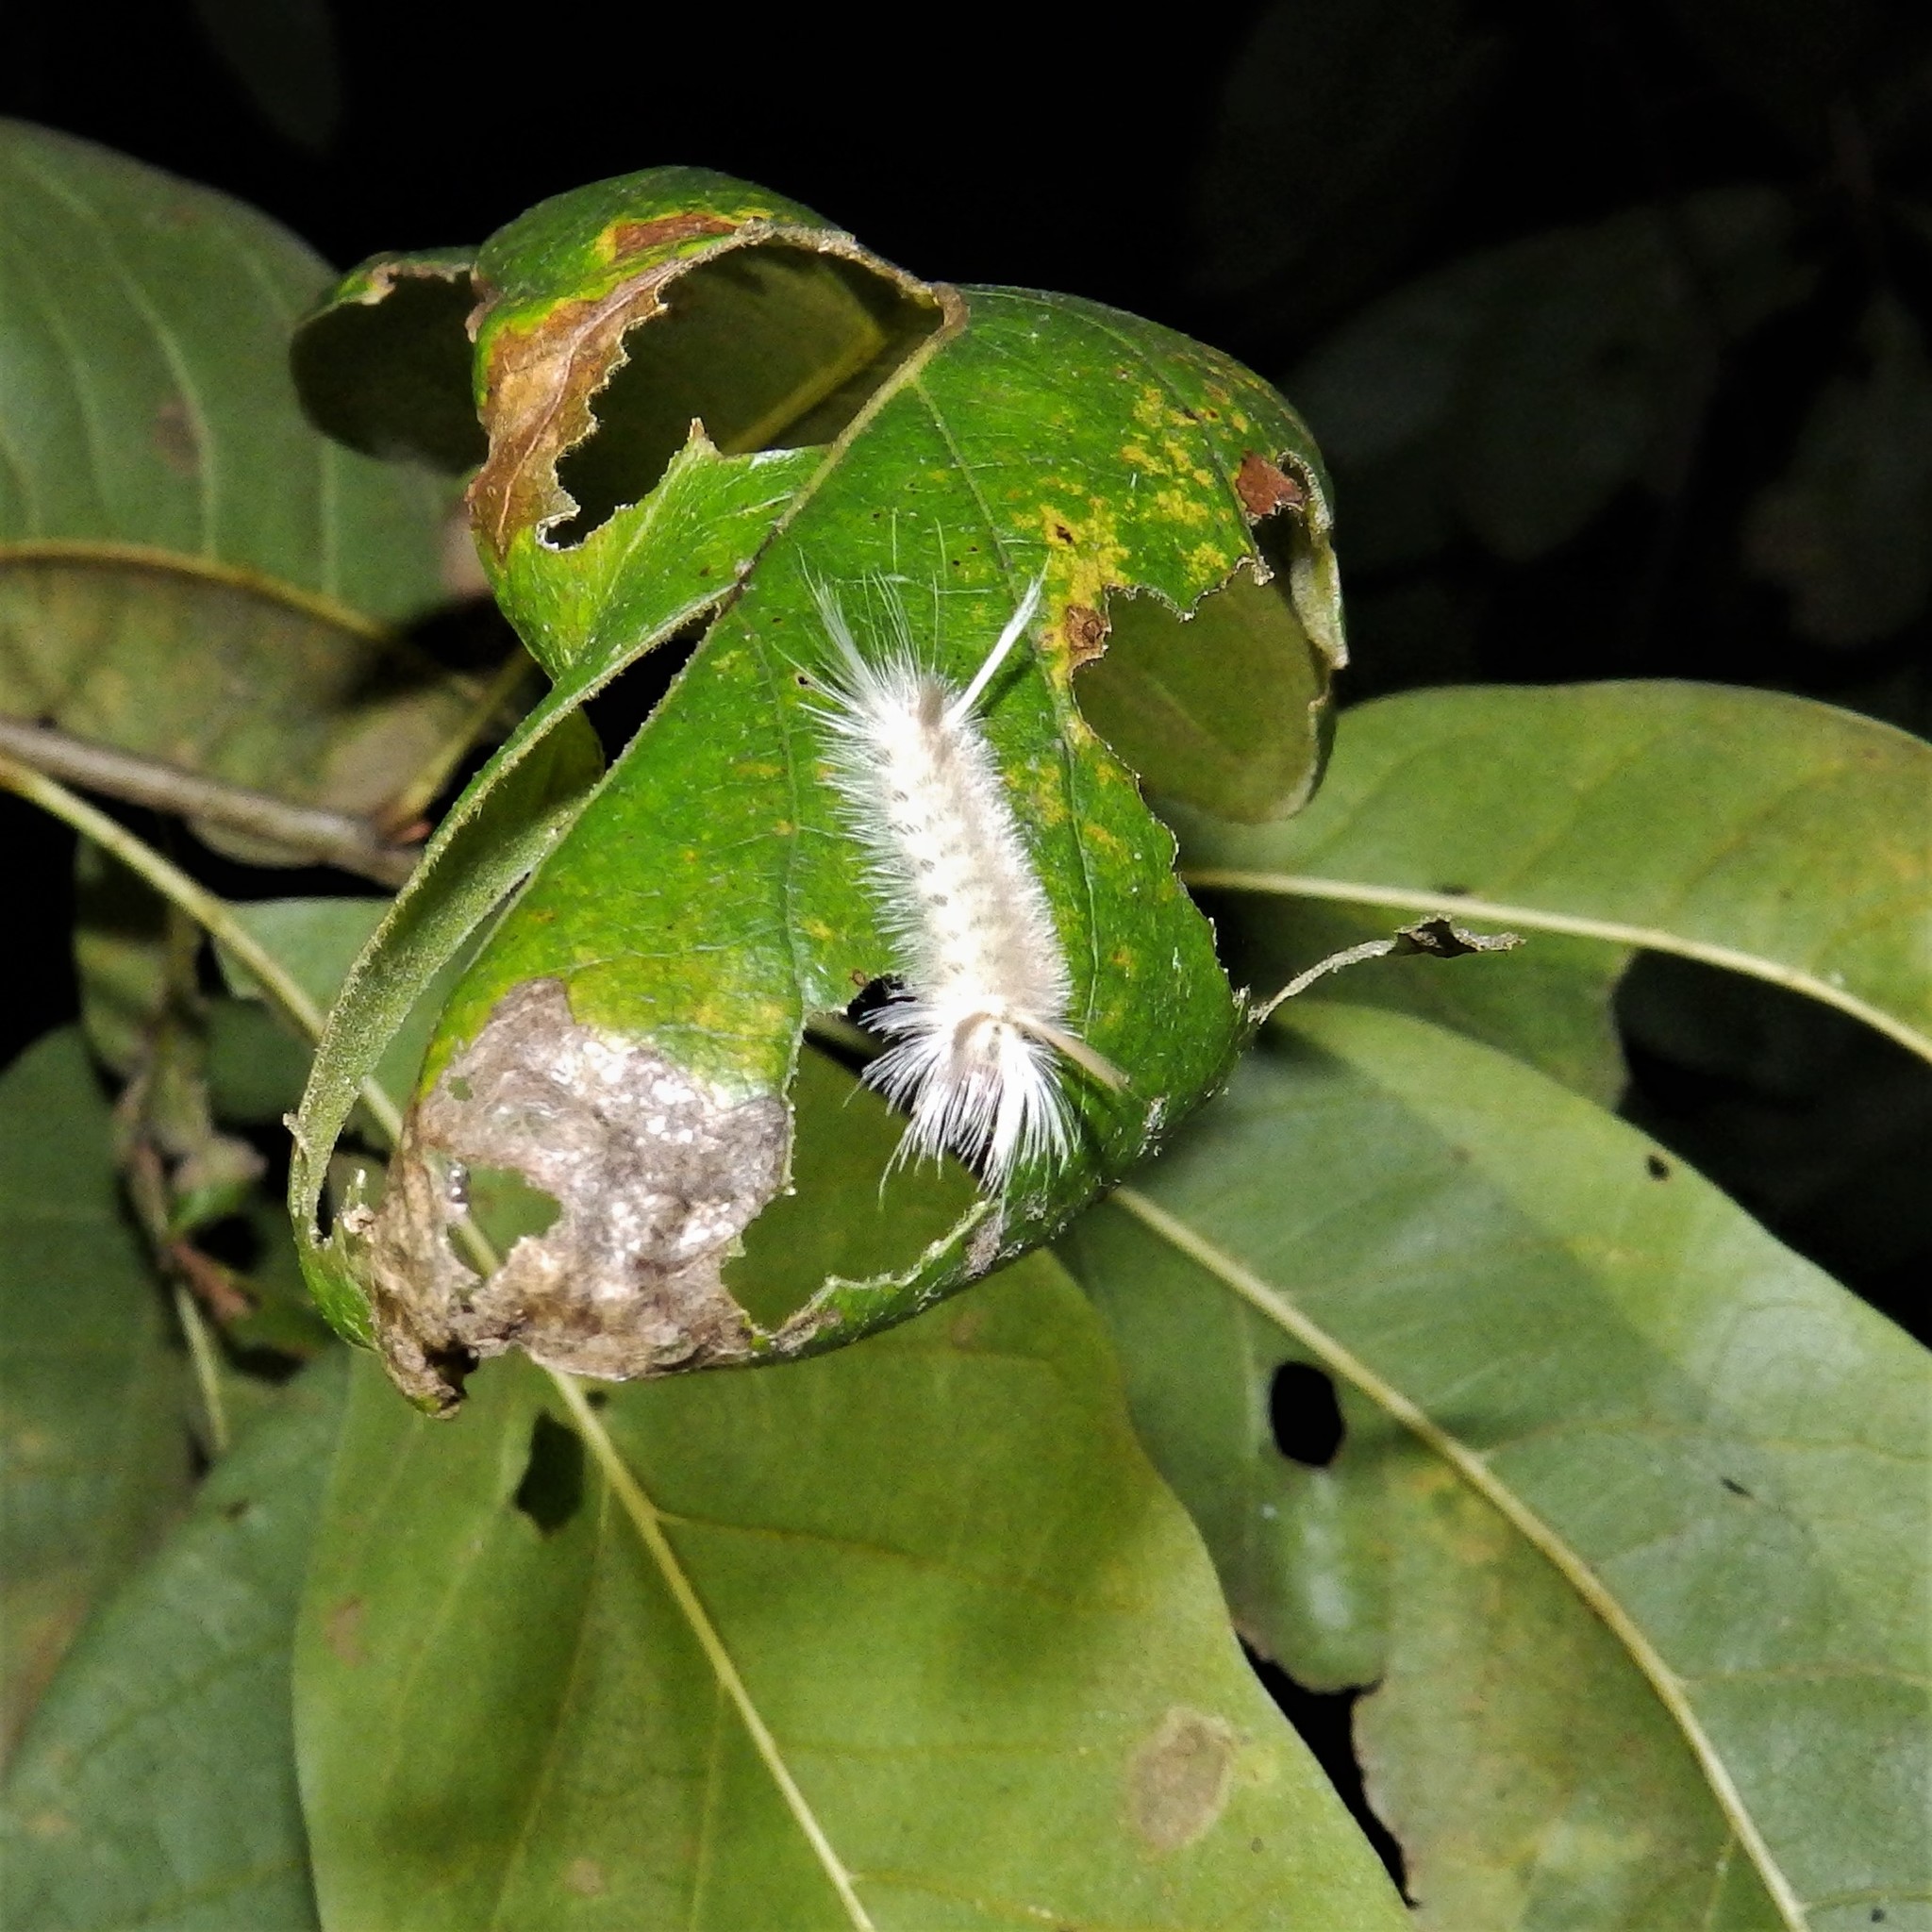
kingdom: Animalia
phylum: Arthropoda
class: Insecta
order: Lepidoptera
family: Erebidae
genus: Halysidota
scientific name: Halysidota tessellaris
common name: Banded tussock moth
